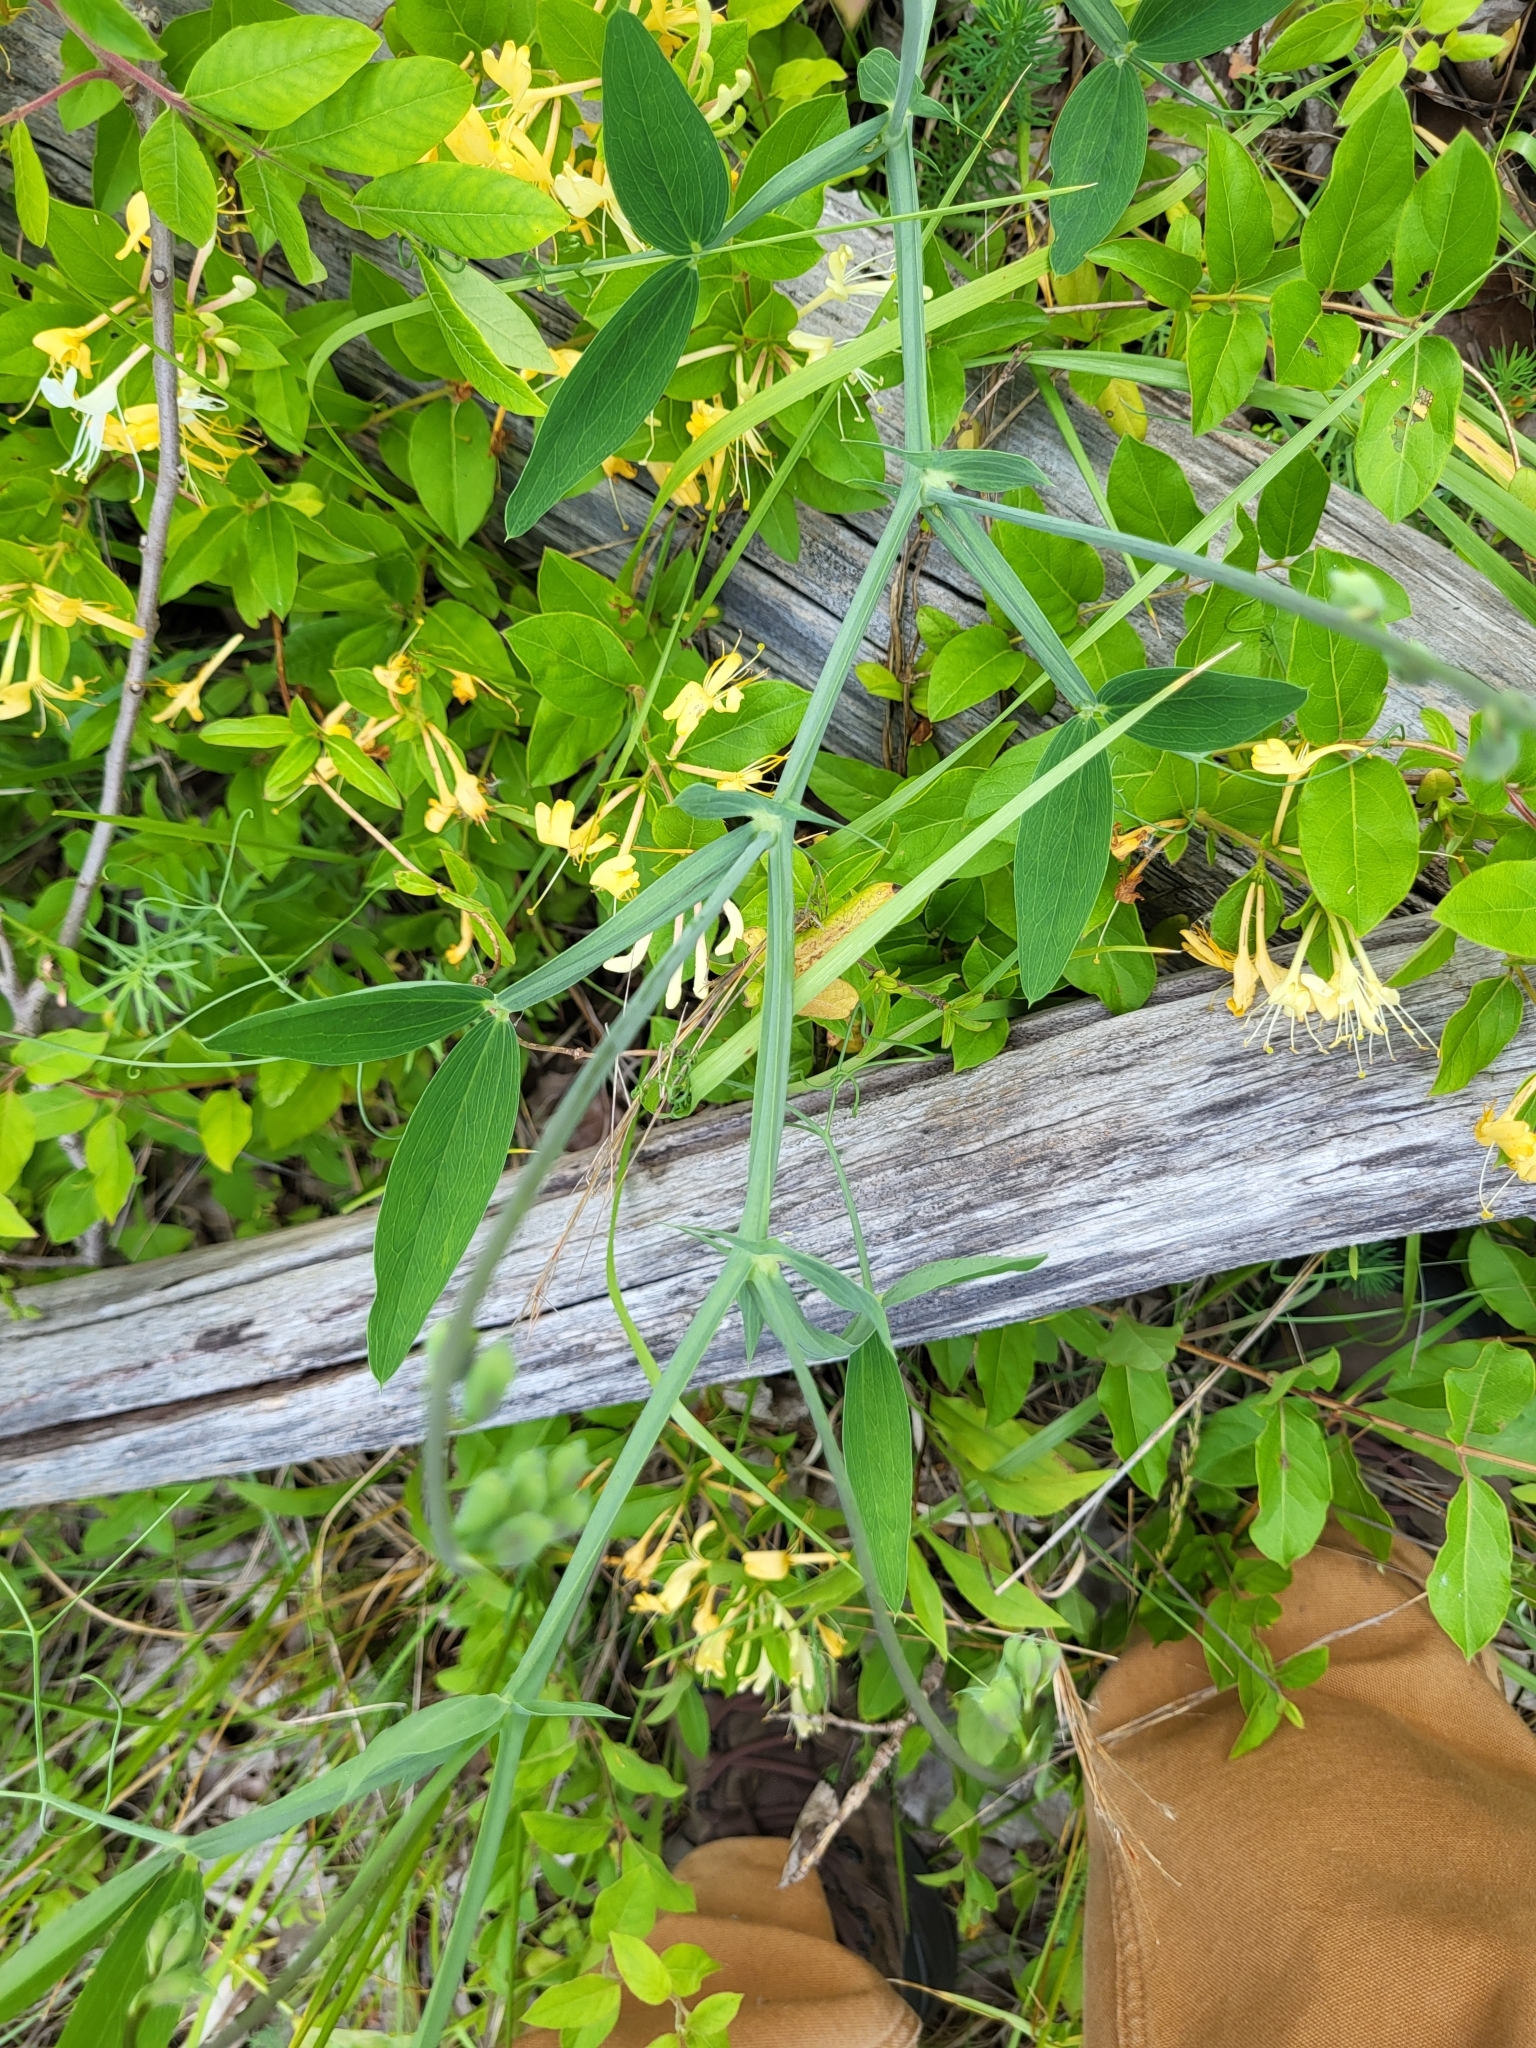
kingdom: Plantae
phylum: Tracheophyta
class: Magnoliopsida
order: Fabales
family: Fabaceae
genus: Lathyrus
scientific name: Lathyrus latifolius
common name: Perennial pea
